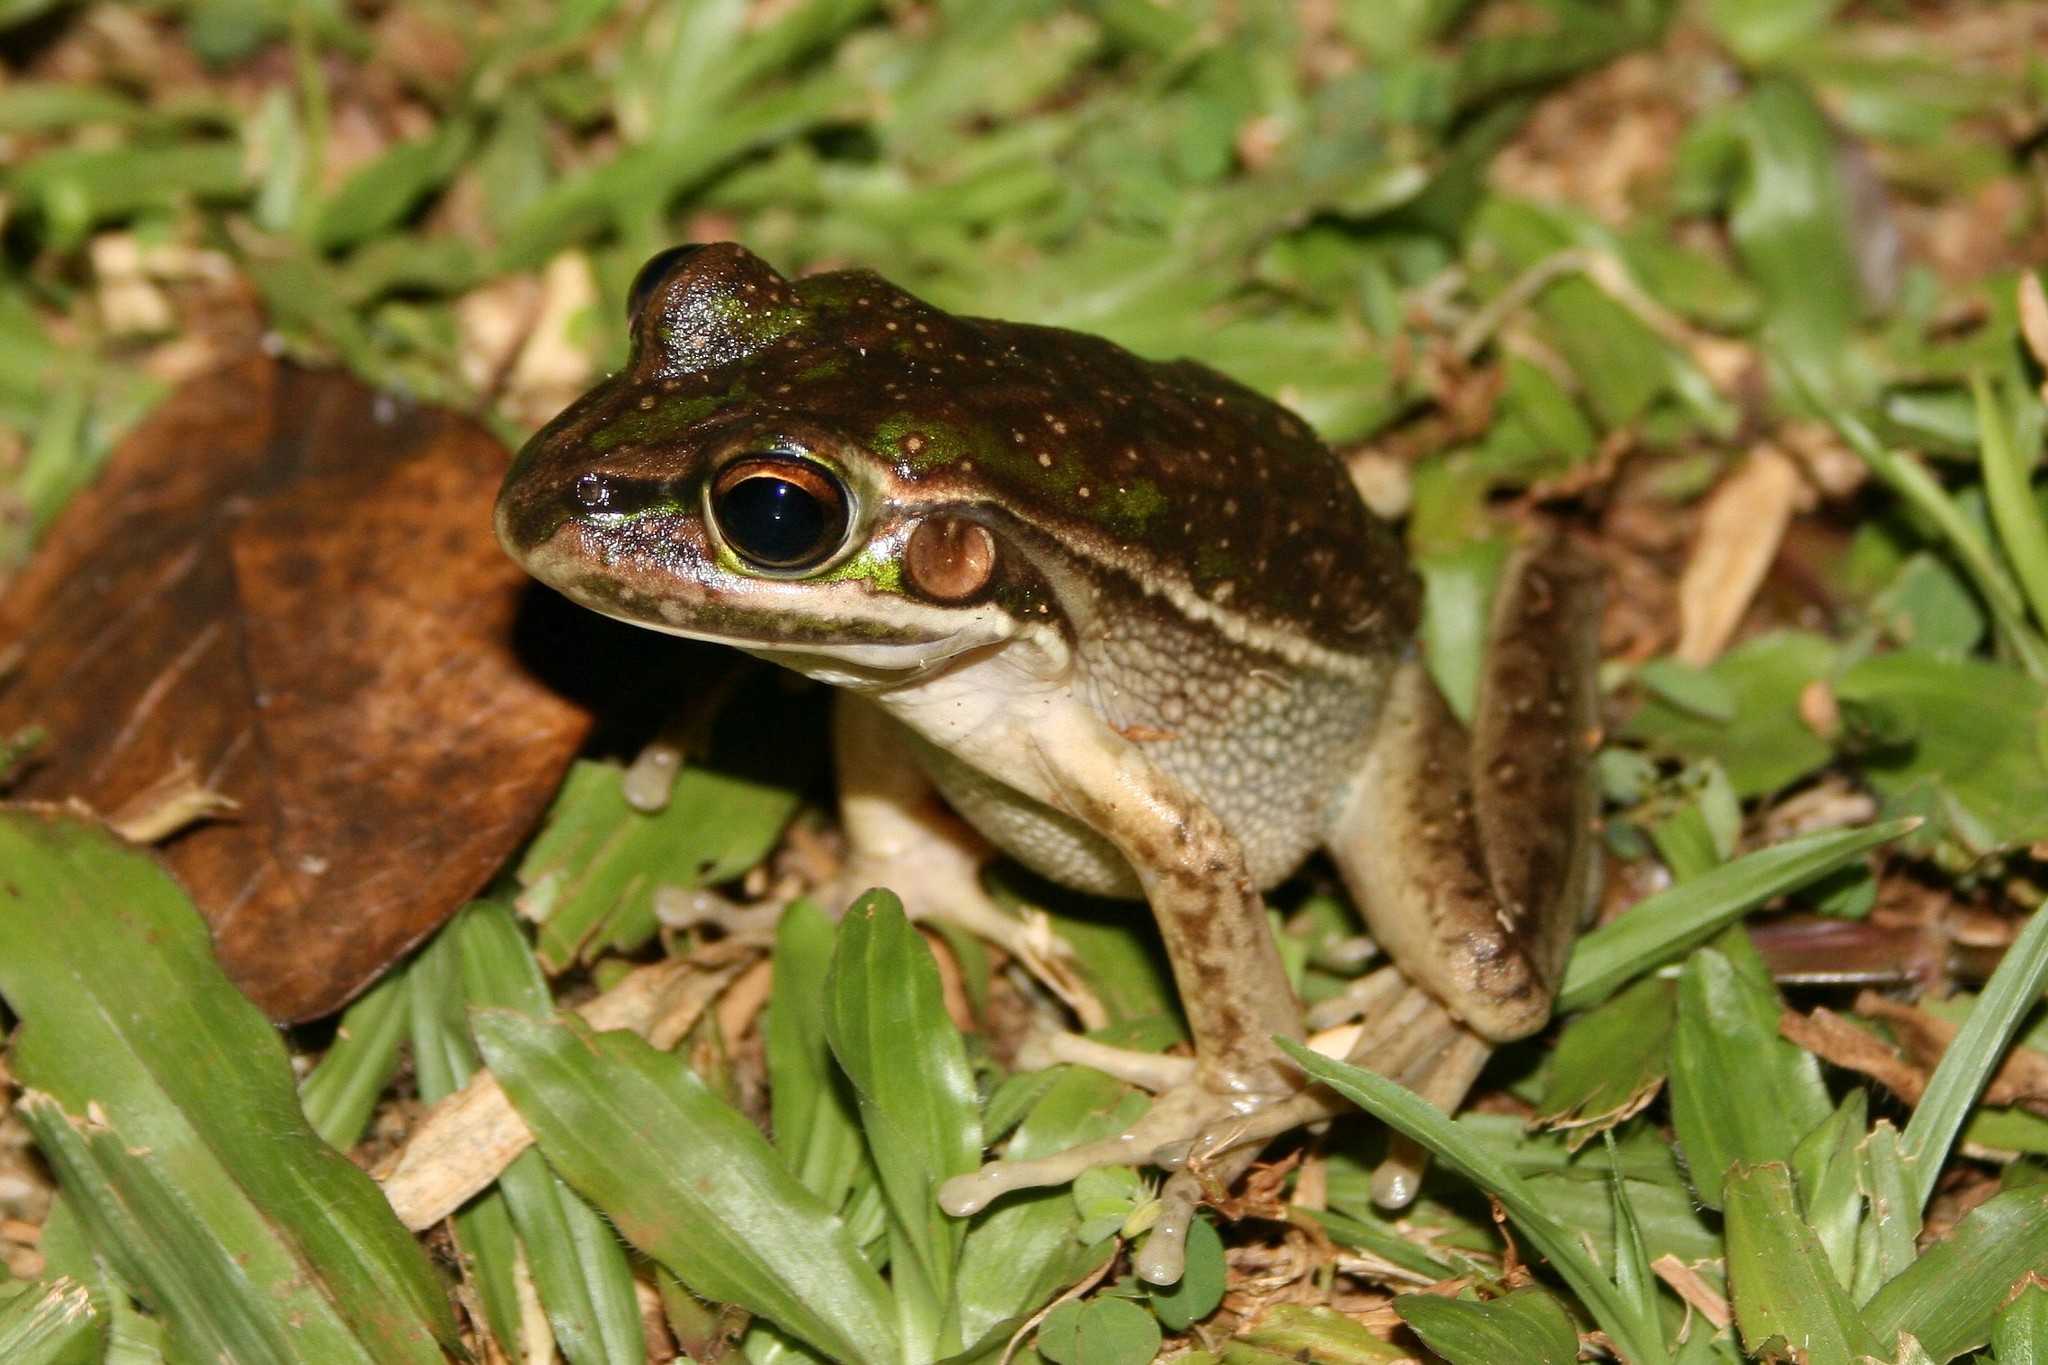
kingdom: Animalia
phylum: Chordata
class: Amphibia
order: Anura
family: Pelodryadidae
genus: Ranoidea
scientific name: Ranoidea aurea
